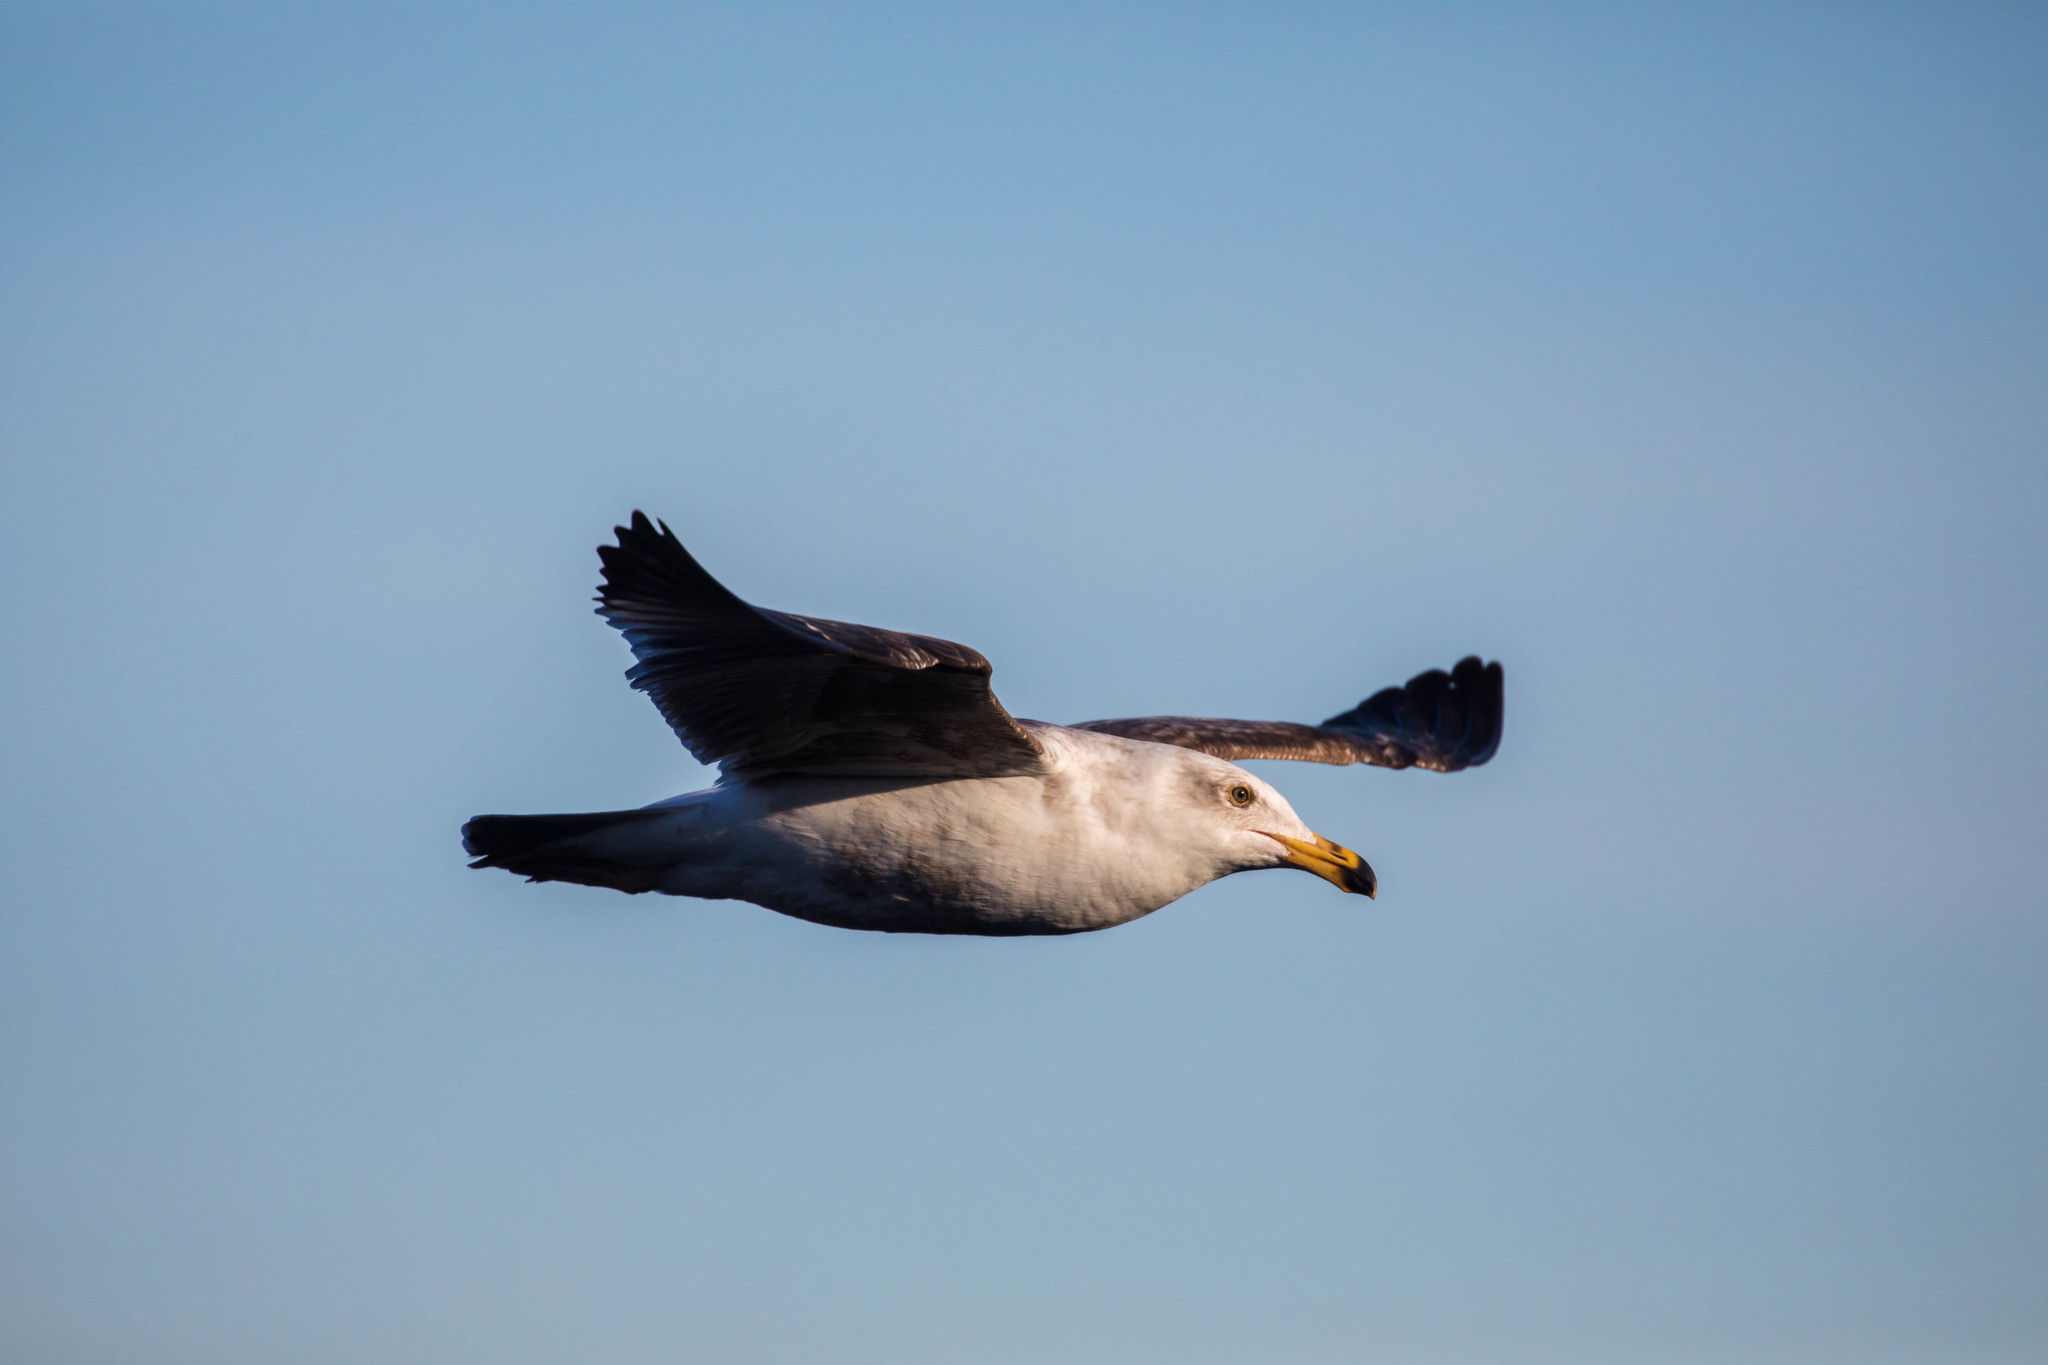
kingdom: Animalia
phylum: Chordata
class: Aves
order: Charadriiformes
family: Laridae
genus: Larus
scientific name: Larus occidentalis
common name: Western gull
